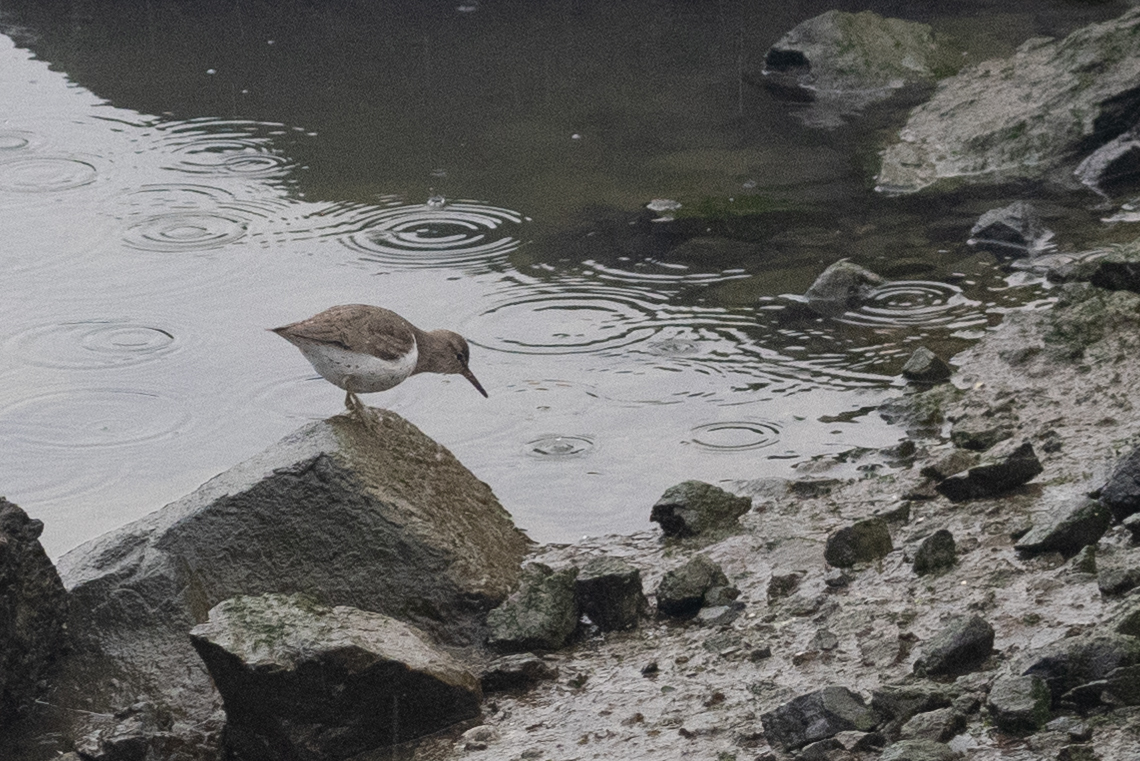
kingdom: Animalia
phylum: Chordata
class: Aves
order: Charadriiformes
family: Scolopacidae
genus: Actitis
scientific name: Actitis macularius
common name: Spotted sandpiper
